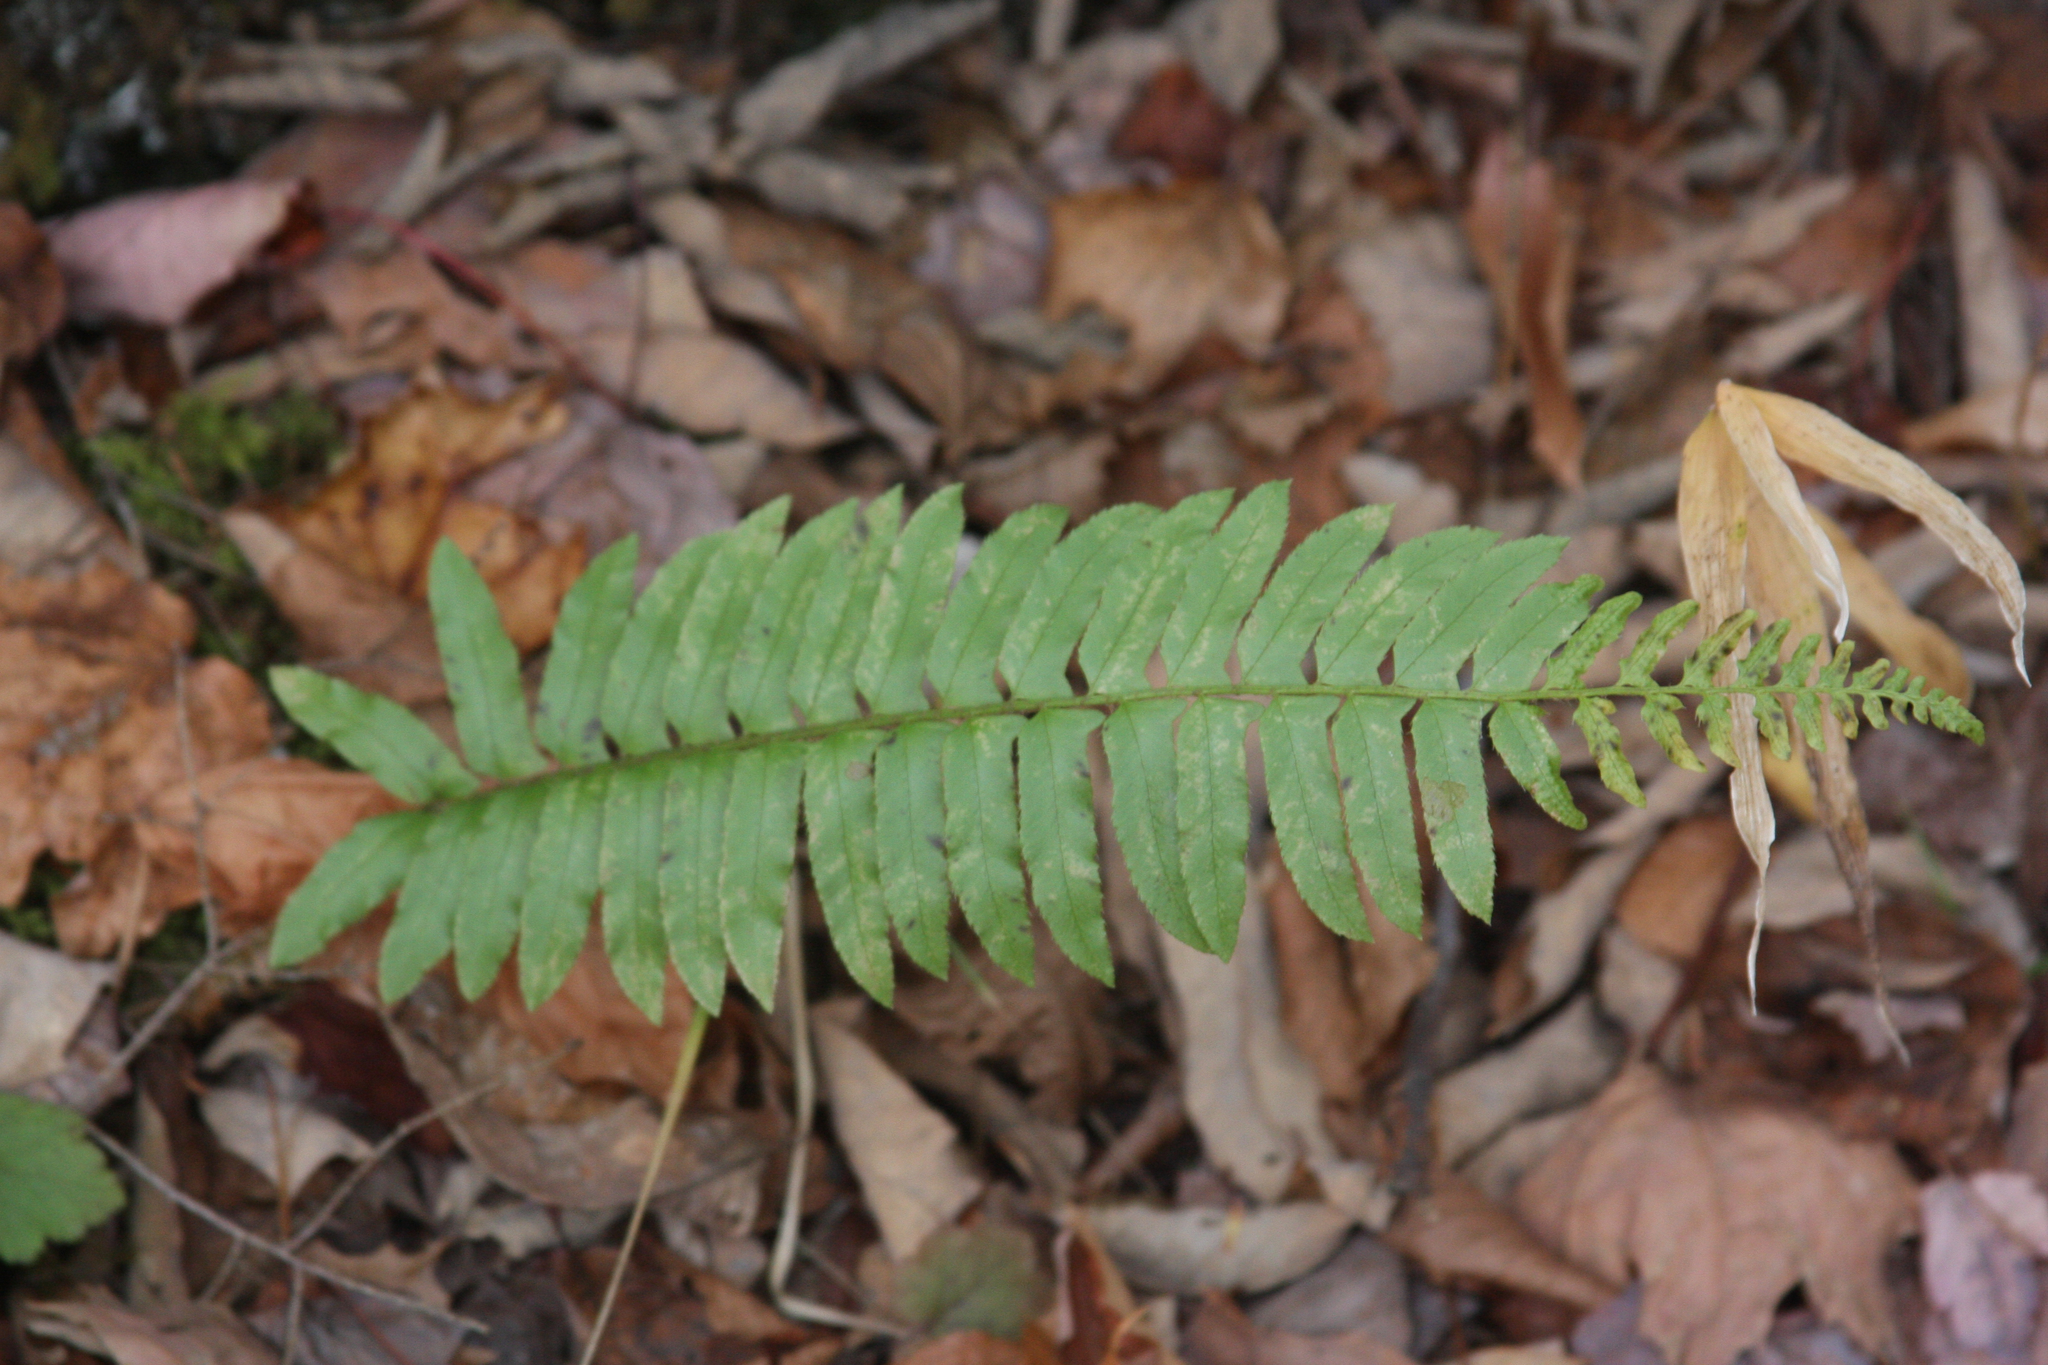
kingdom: Plantae
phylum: Tracheophyta
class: Polypodiopsida
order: Polypodiales
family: Dryopteridaceae
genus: Polystichum
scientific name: Polystichum acrostichoides
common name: Christmas fern
